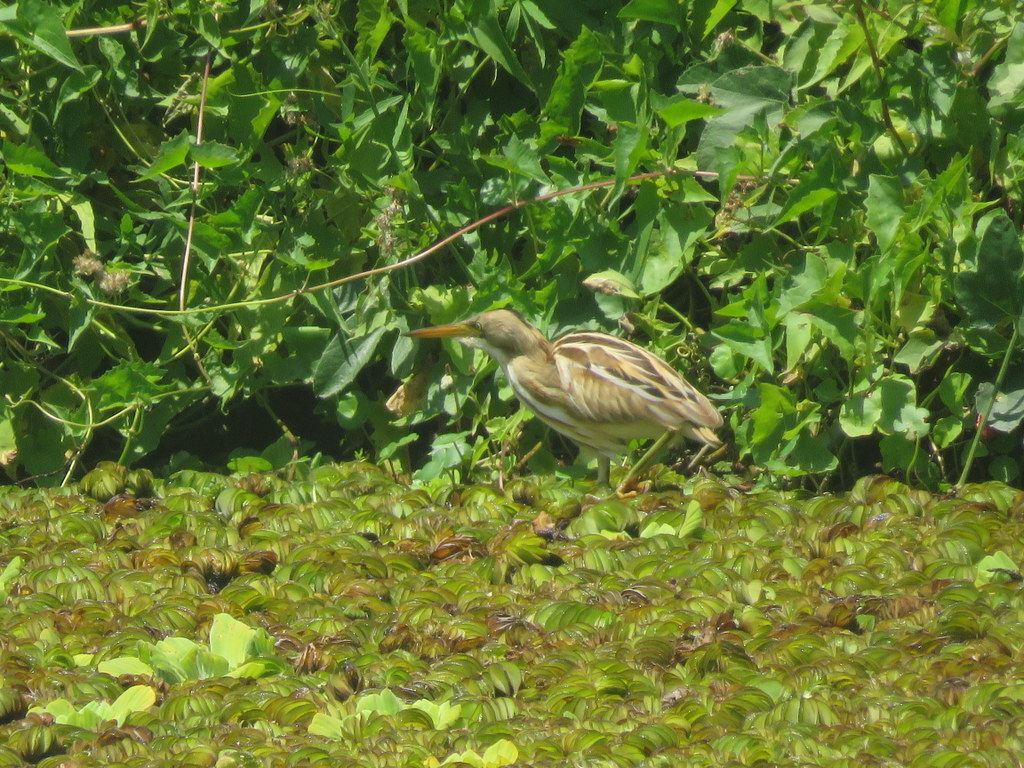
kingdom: Animalia
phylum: Chordata
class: Aves
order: Pelecaniformes
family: Ardeidae
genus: Ixobrychus
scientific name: Ixobrychus involucris
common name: Stripe-backed bittern
